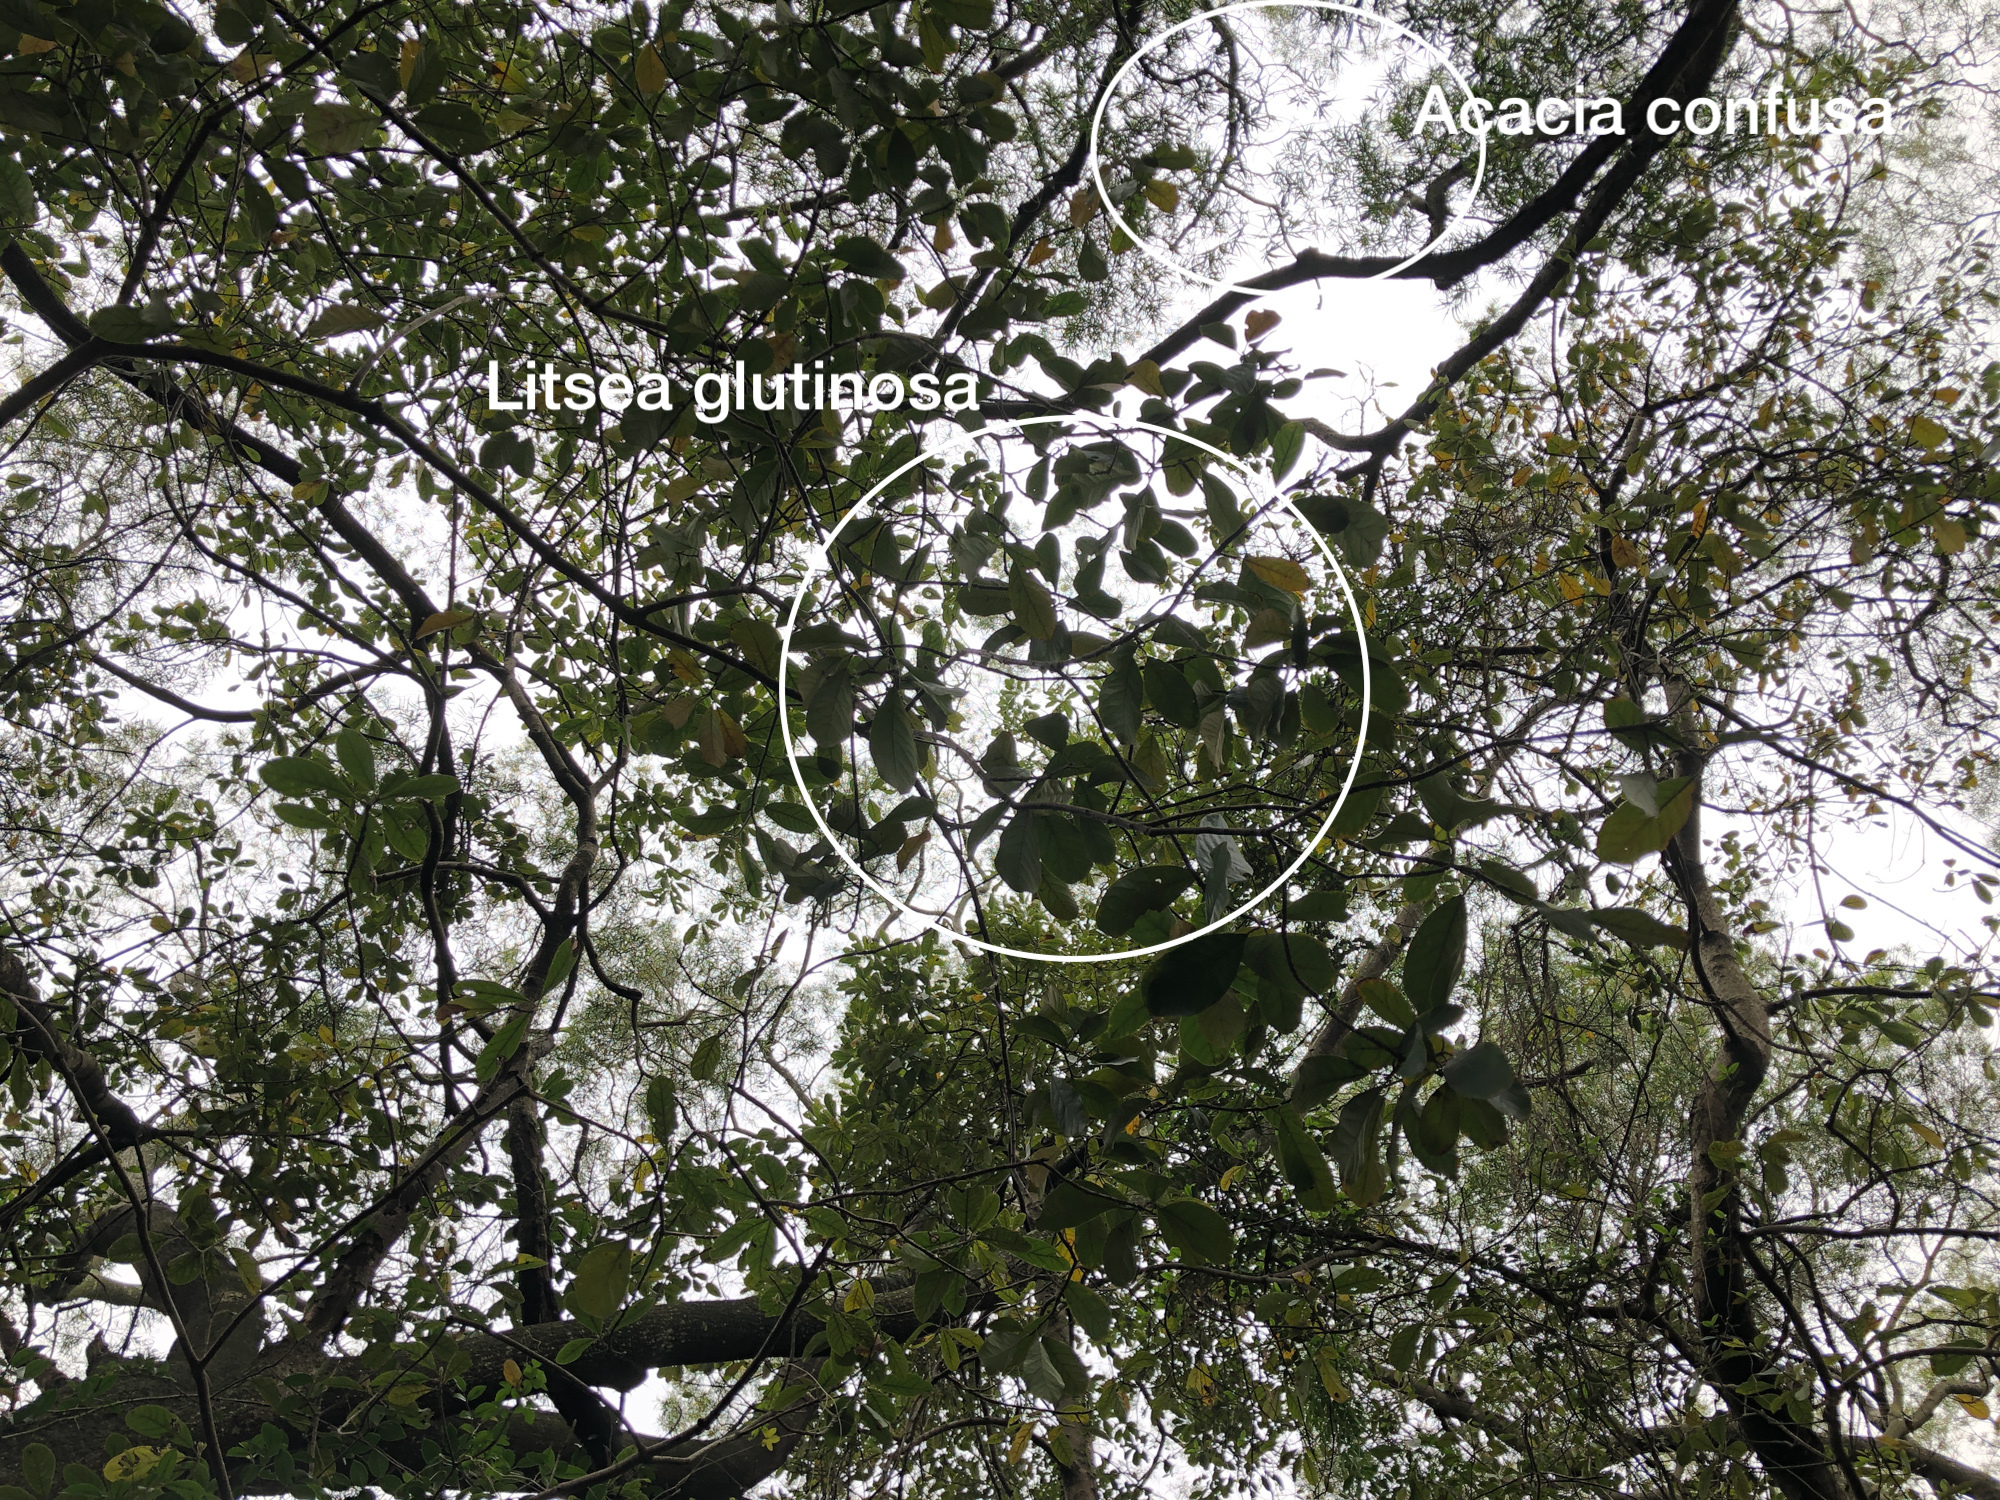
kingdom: Plantae
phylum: Tracheophyta
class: Magnoliopsida
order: Fabales
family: Fabaceae
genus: Acacia
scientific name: Acacia confusa
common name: Formosan koa
